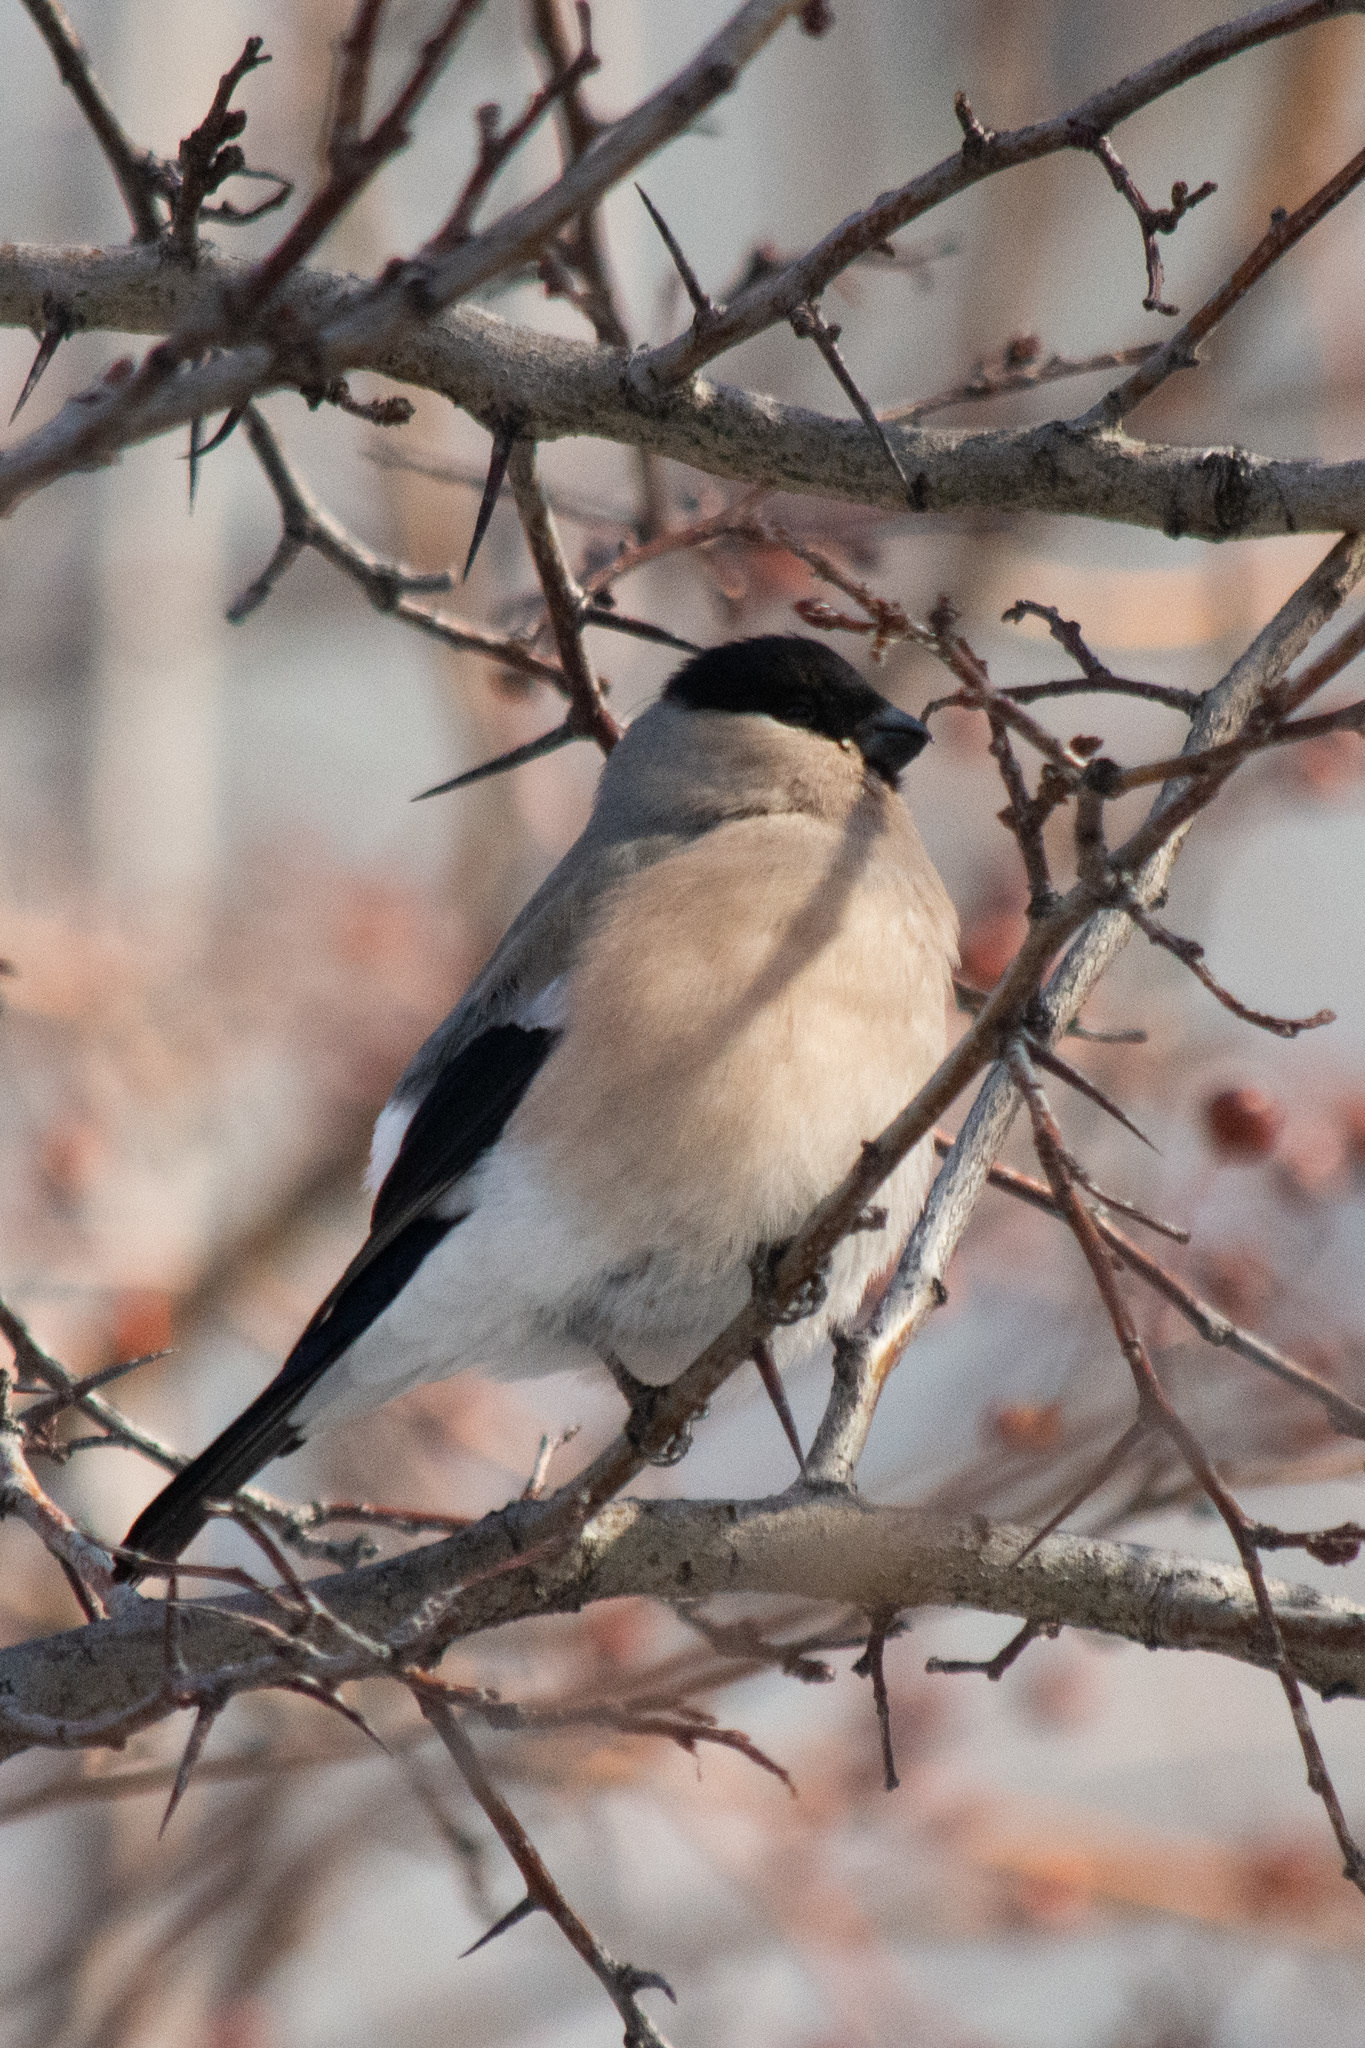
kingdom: Animalia
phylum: Chordata
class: Aves
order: Passeriformes
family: Fringillidae
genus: Pyrrhula
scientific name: Pyrrhula pyrrhula
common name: Eurasian bullfinch
